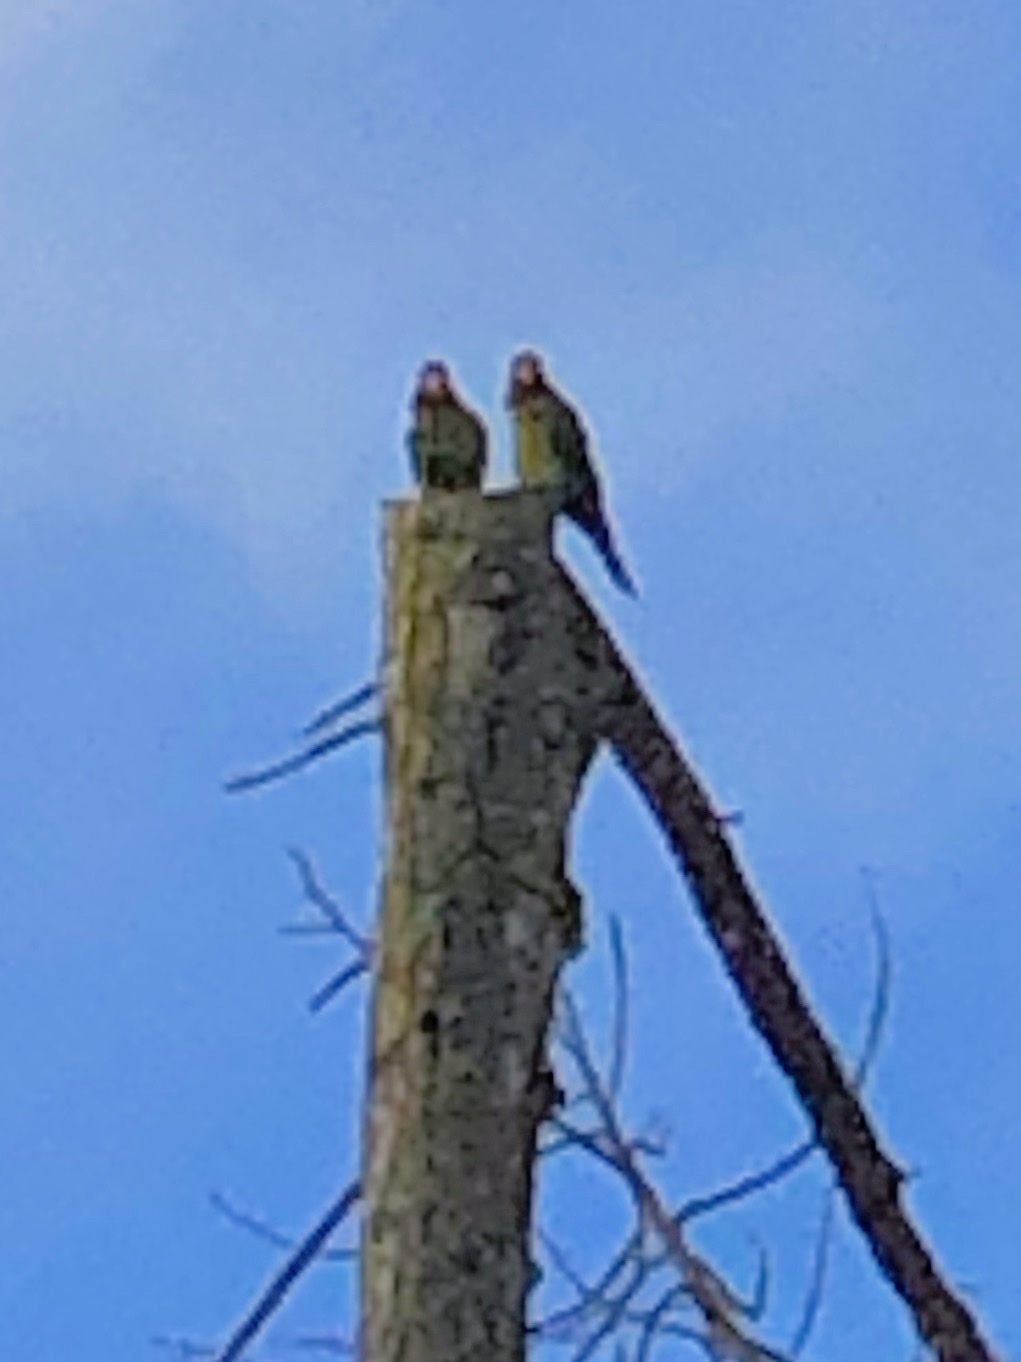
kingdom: Animalia
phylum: Chordata
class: Aves
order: Psittaciformes
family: Psittacidae
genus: Aratinga
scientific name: Aratinga erythrogenys
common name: Red-masked parakeet
